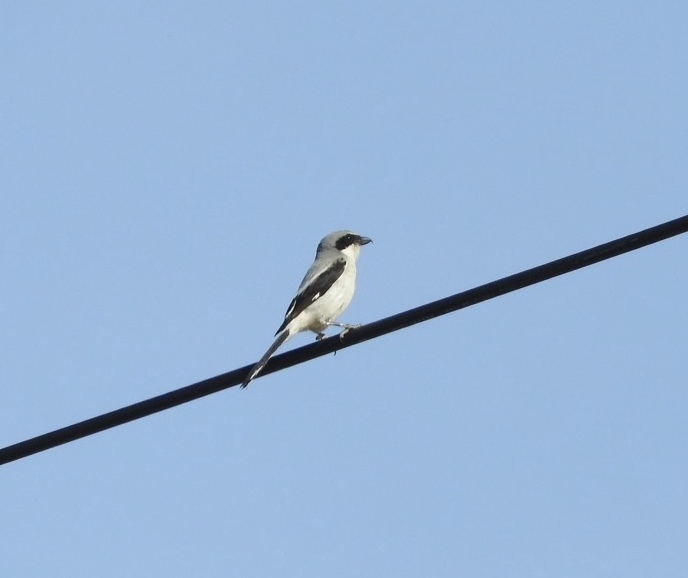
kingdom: Animalia
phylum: Chordata
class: Aves
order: Passeriformes
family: Laniidae
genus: Lanius
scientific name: Lanius ludovicianus
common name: Loggerhead shrike
